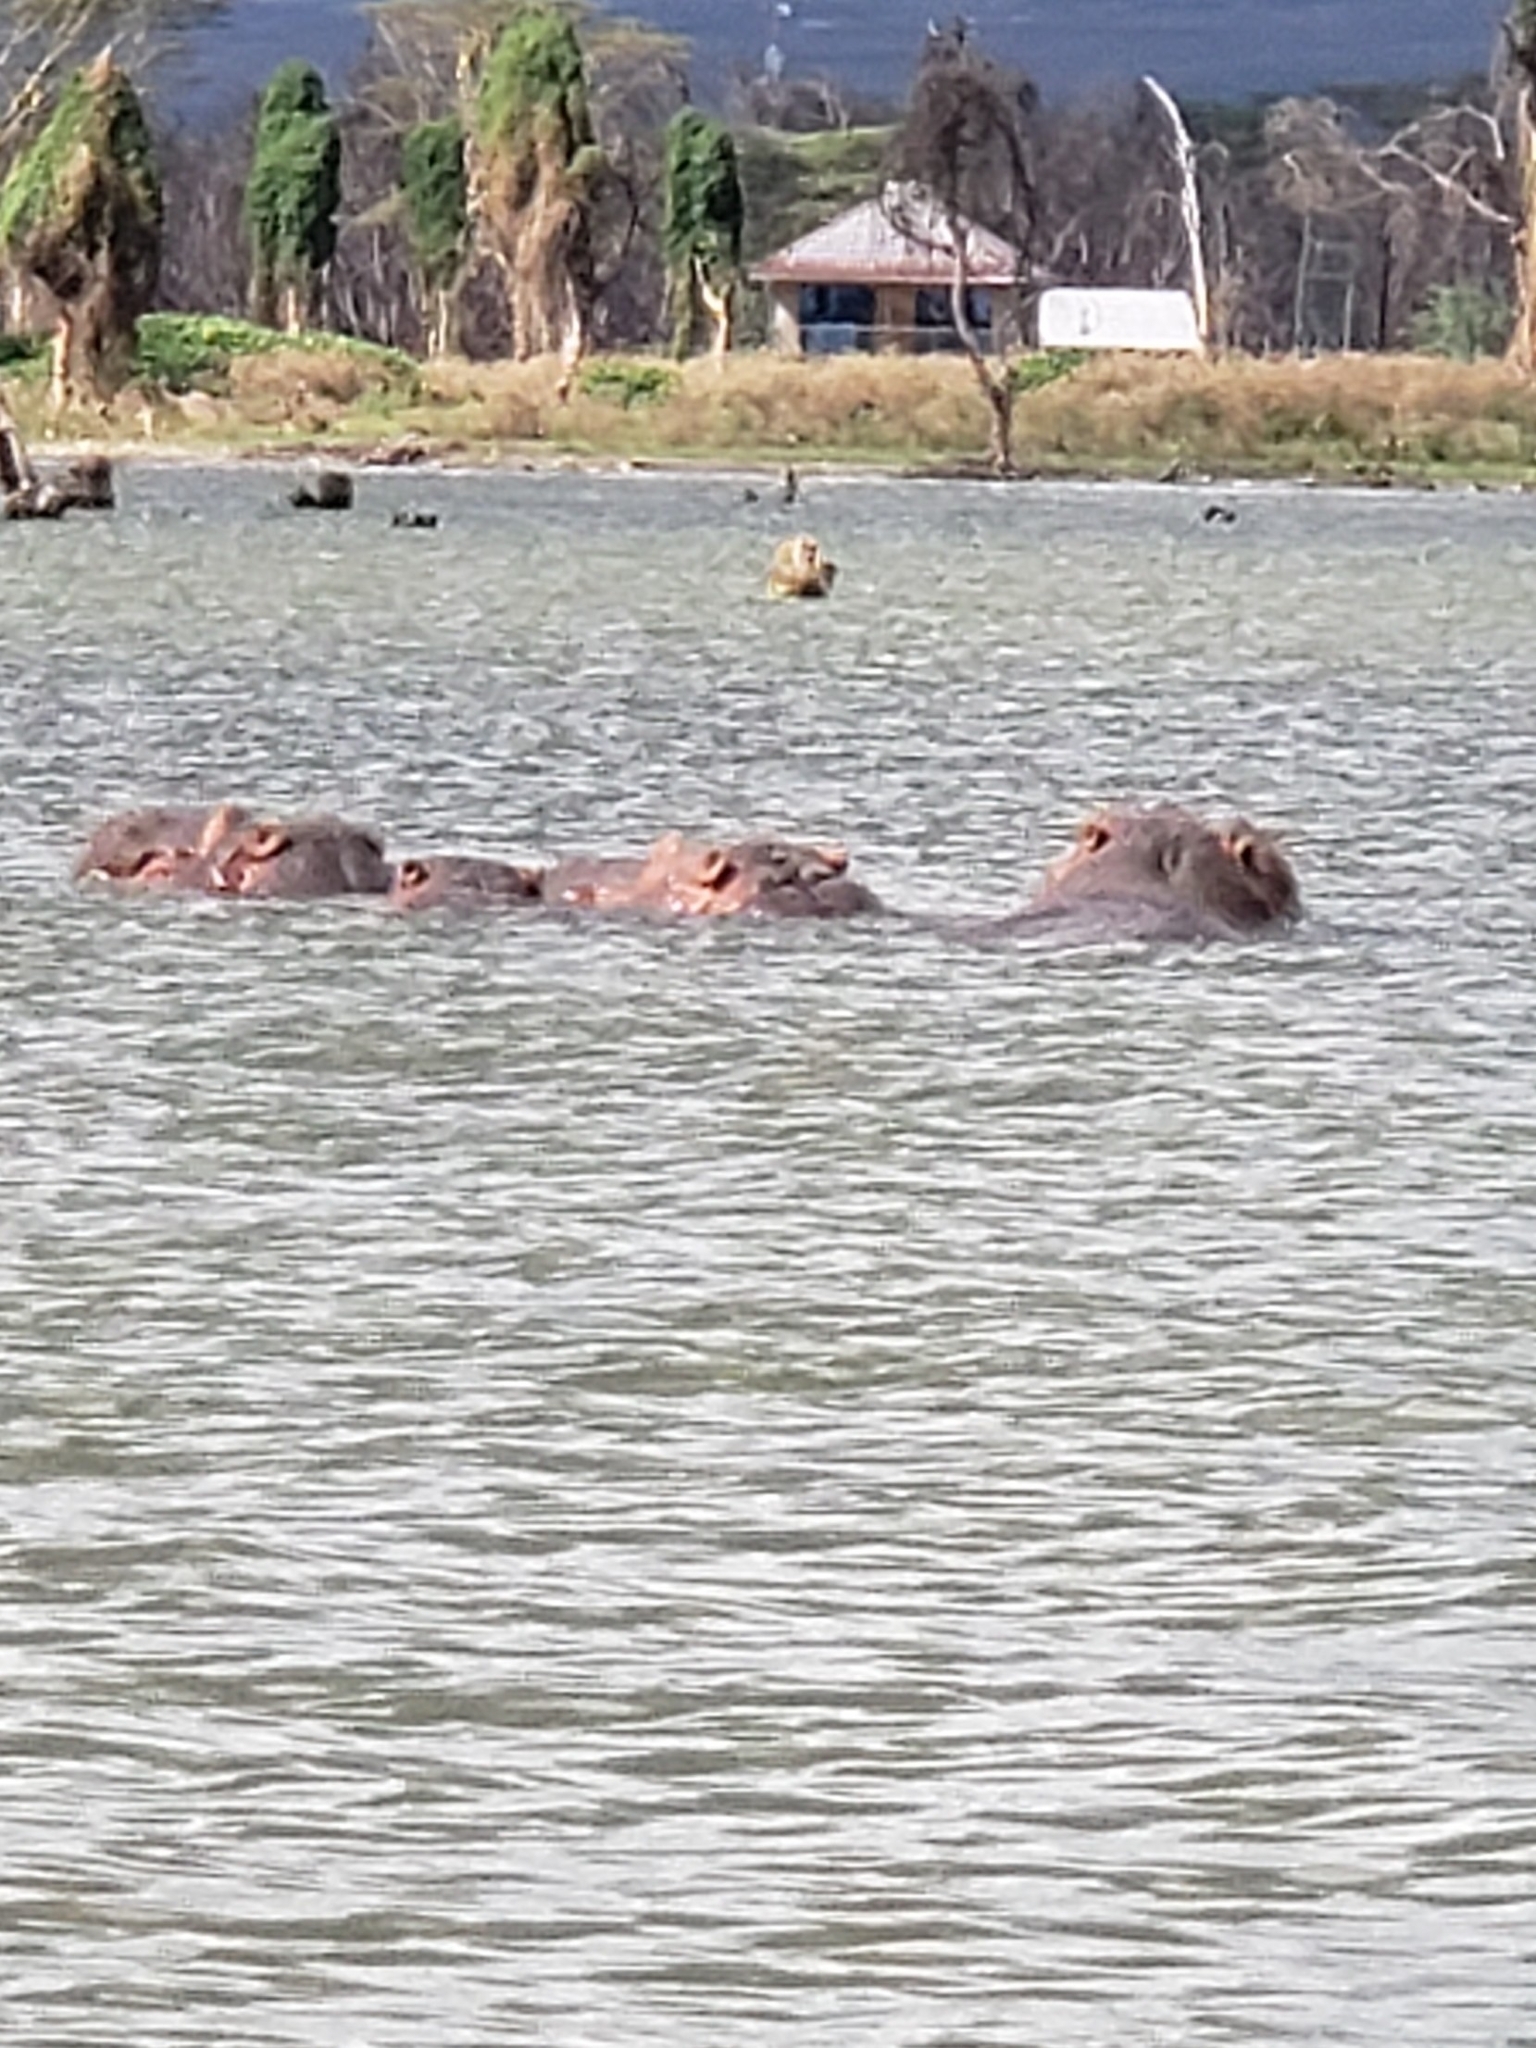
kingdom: Animalia
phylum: Chordata
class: Mammalia
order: Artiodactyla
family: Hippopotamidae
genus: Hippopotamus
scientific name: Hippopotamus amphibius
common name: Common hippopotamus
